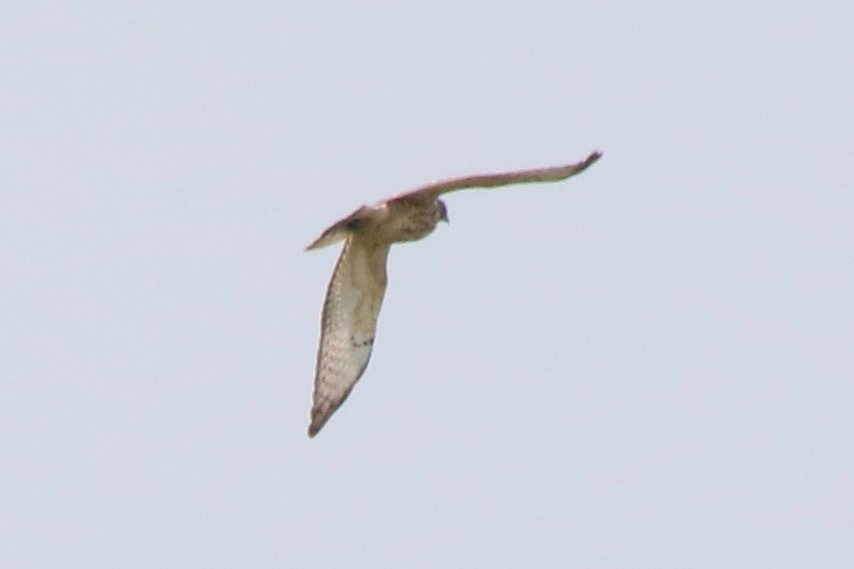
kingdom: Animalia
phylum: Chordata
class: Aves
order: Accipitriformes
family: Accipitridae
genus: Buteo
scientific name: Buteo platypterus
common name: Broad-winged hawk
